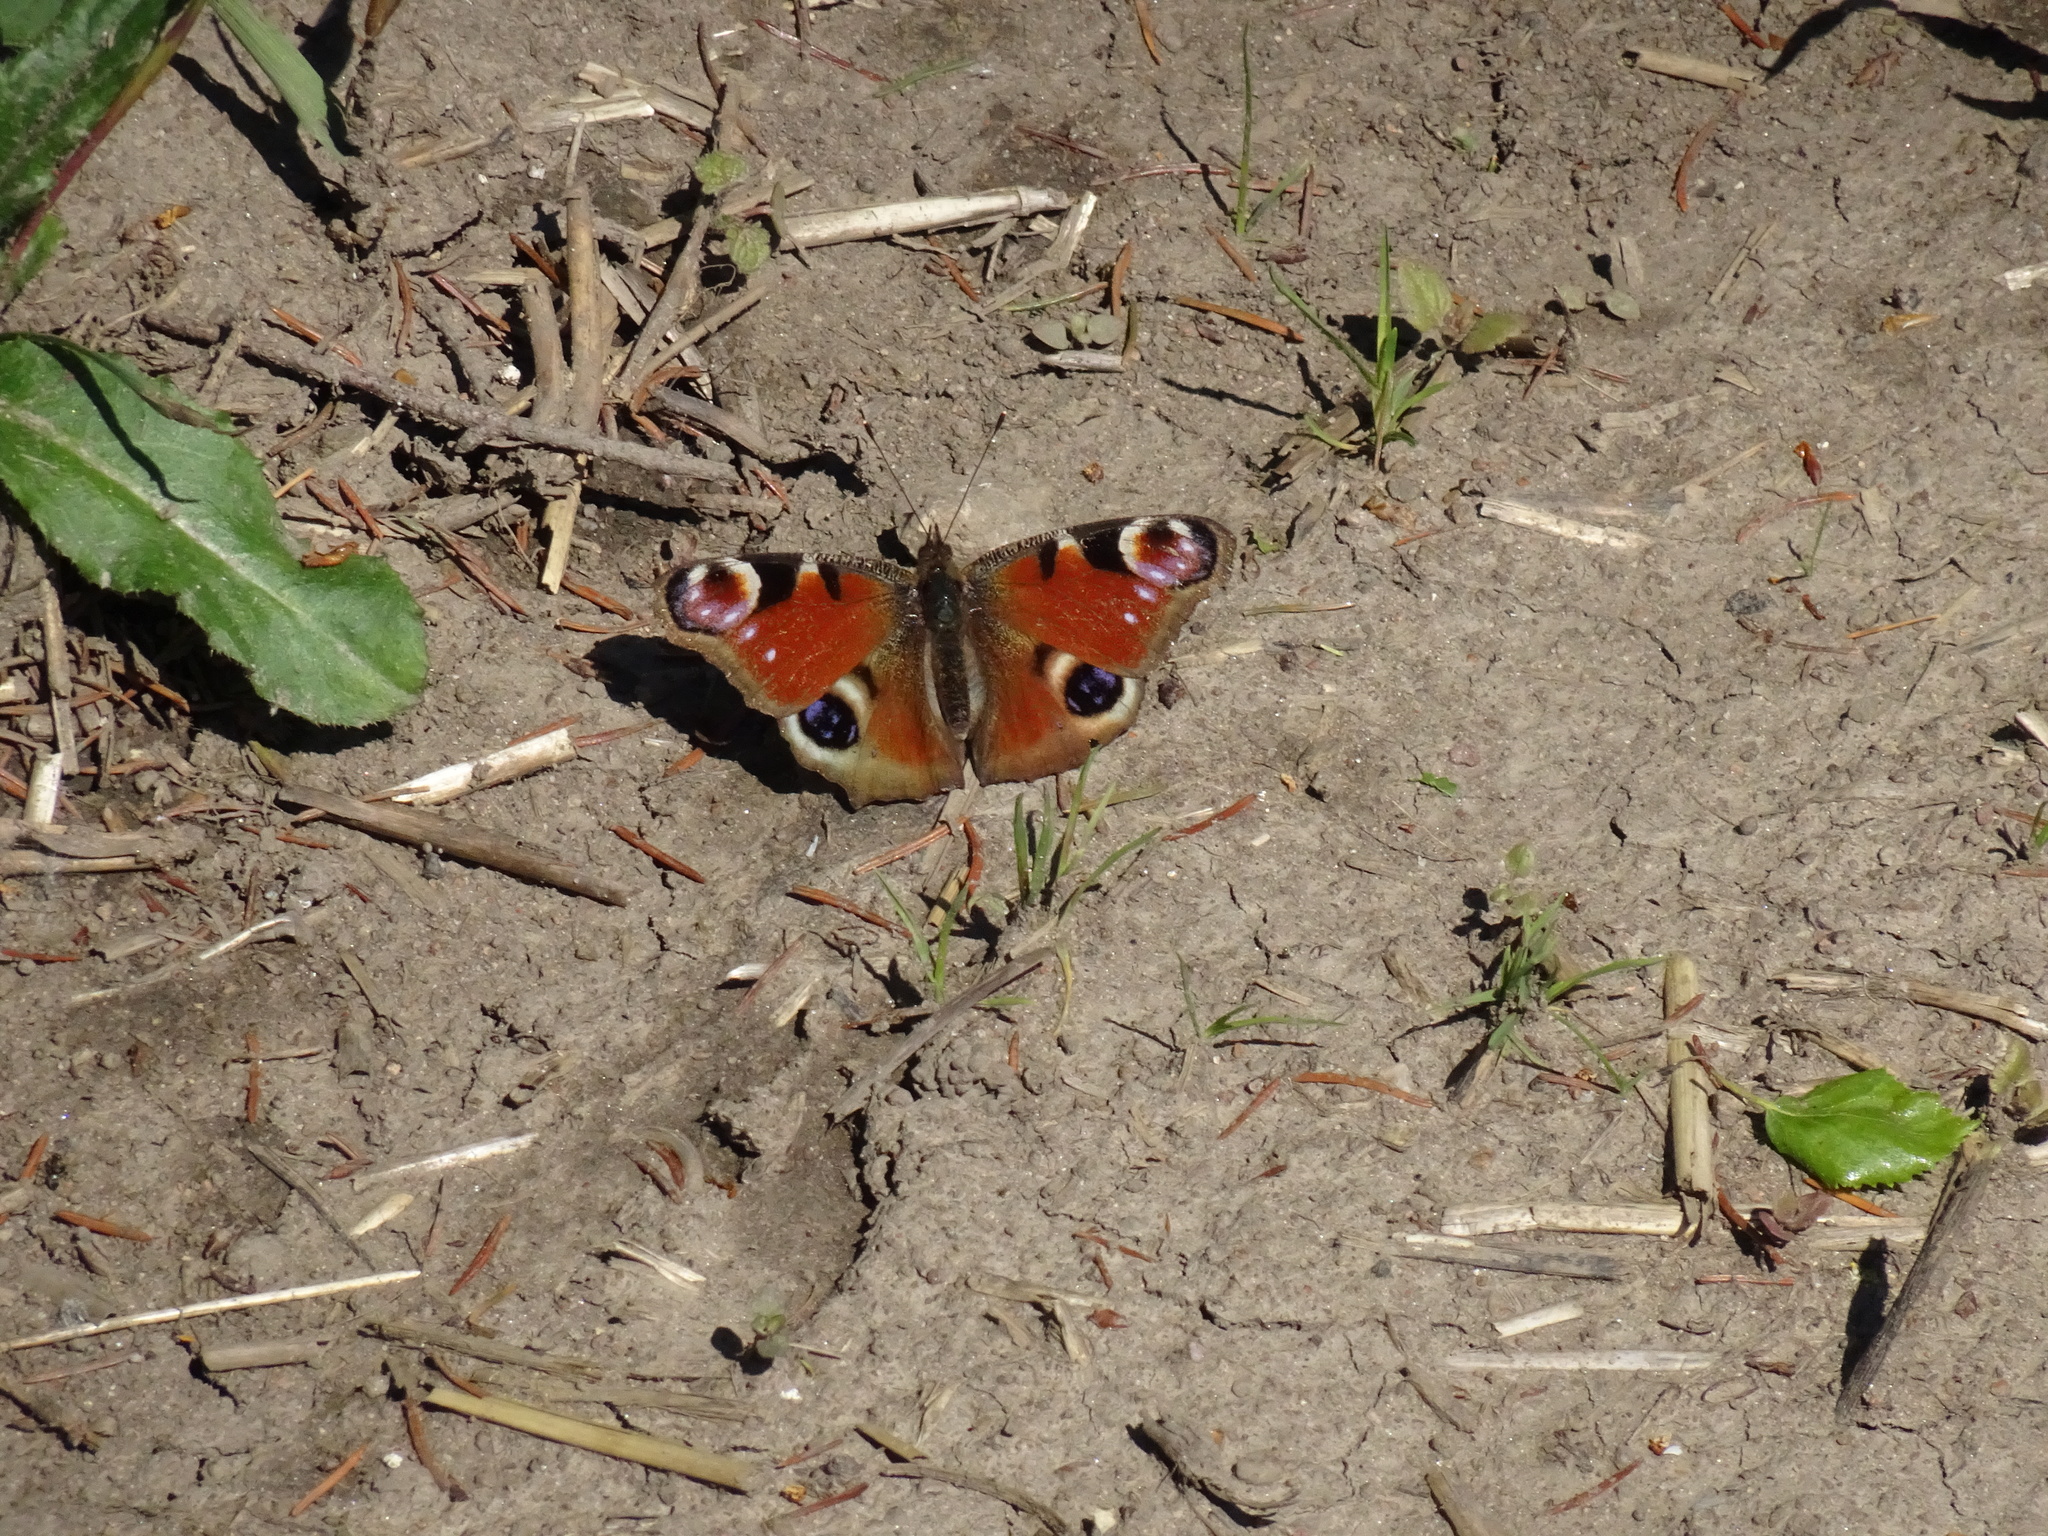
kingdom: Animalia
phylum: Arthropoda
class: Insecta
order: Lepidoptera
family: Nymphalidae
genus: Aglais
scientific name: Aglais io
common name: Peacock
